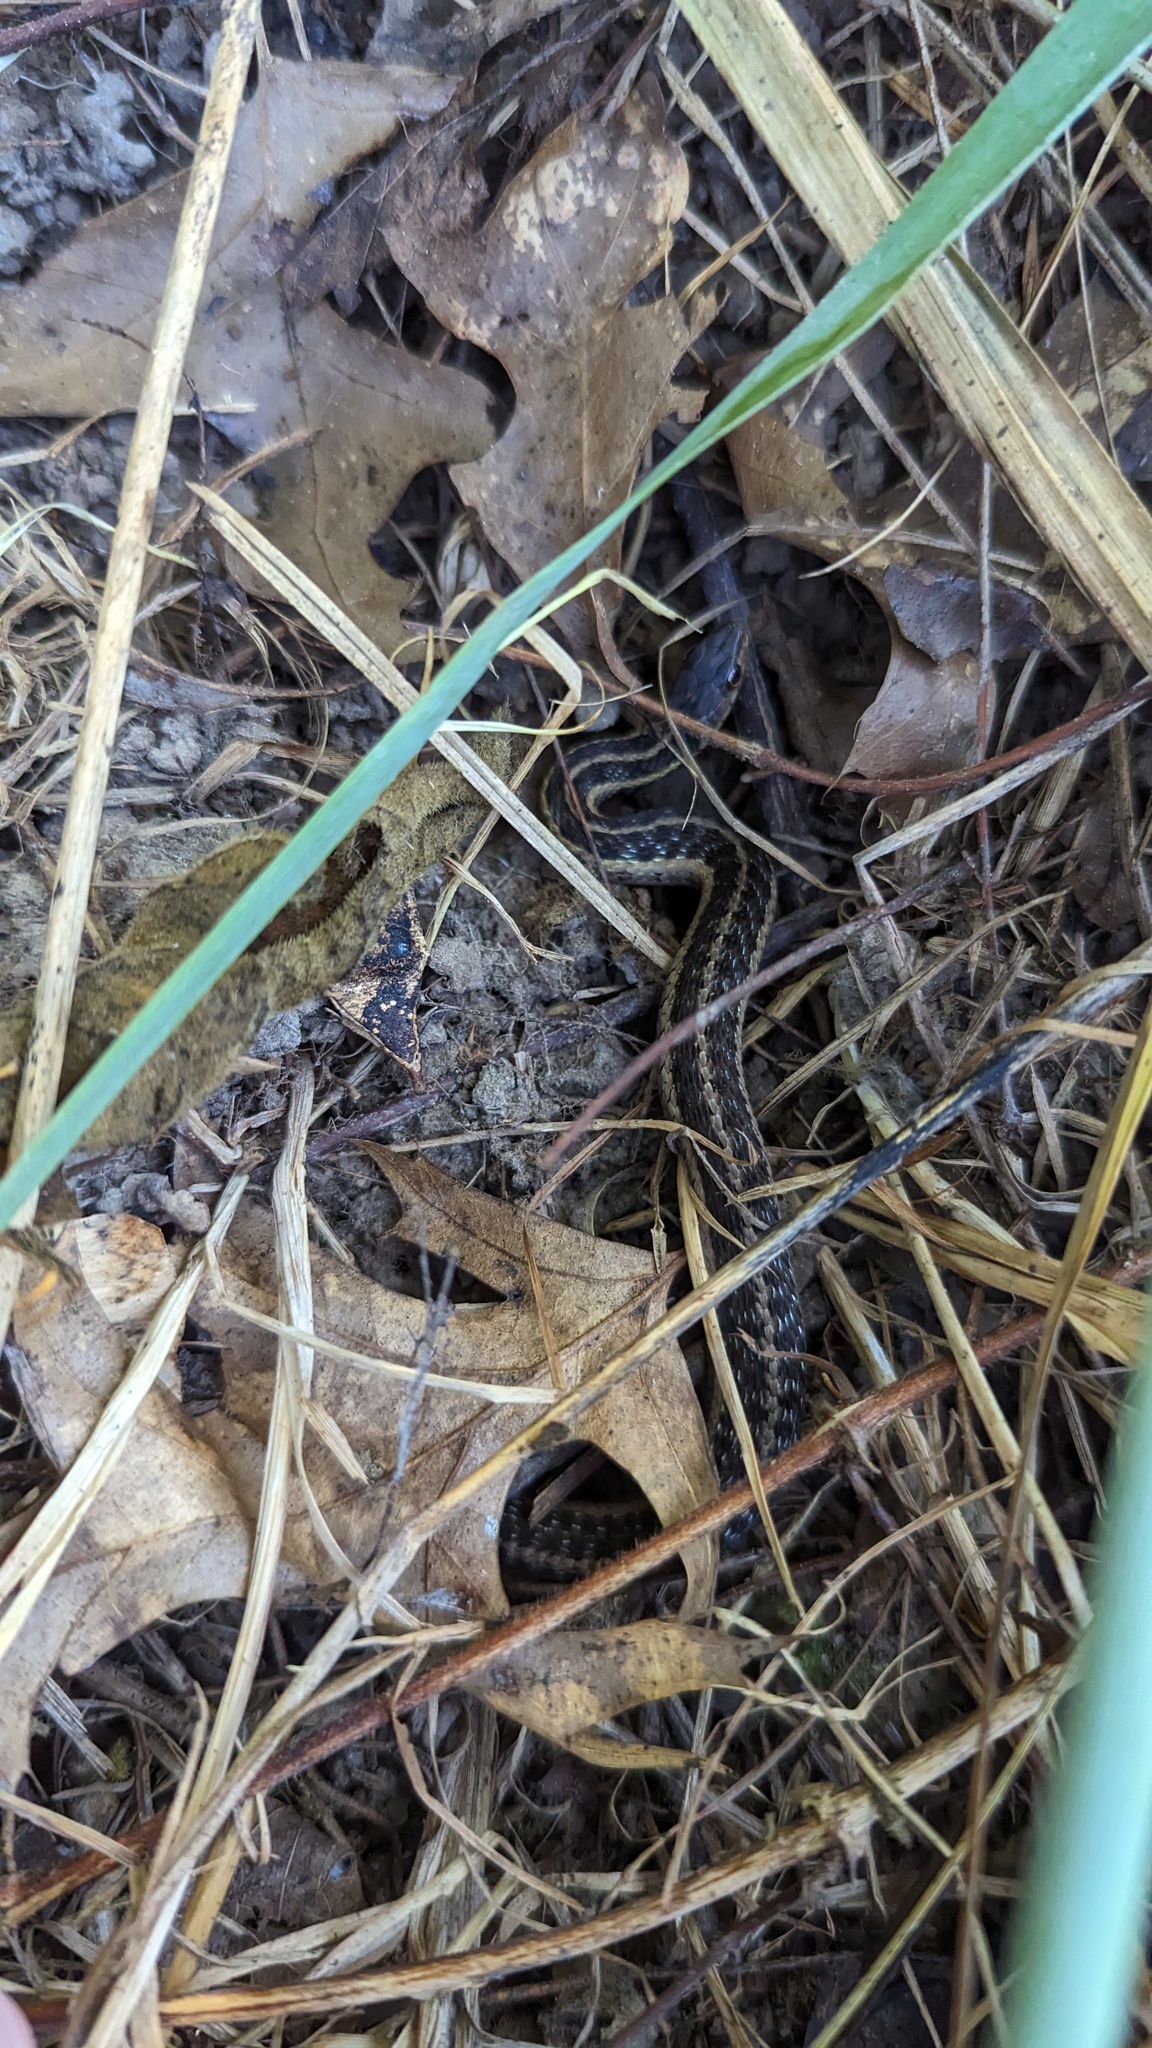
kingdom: Animalia
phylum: Chordata
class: Squamata
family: Colubridae
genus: Thamnophis
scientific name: Thamnophis sirtalis
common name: Common garter snake
